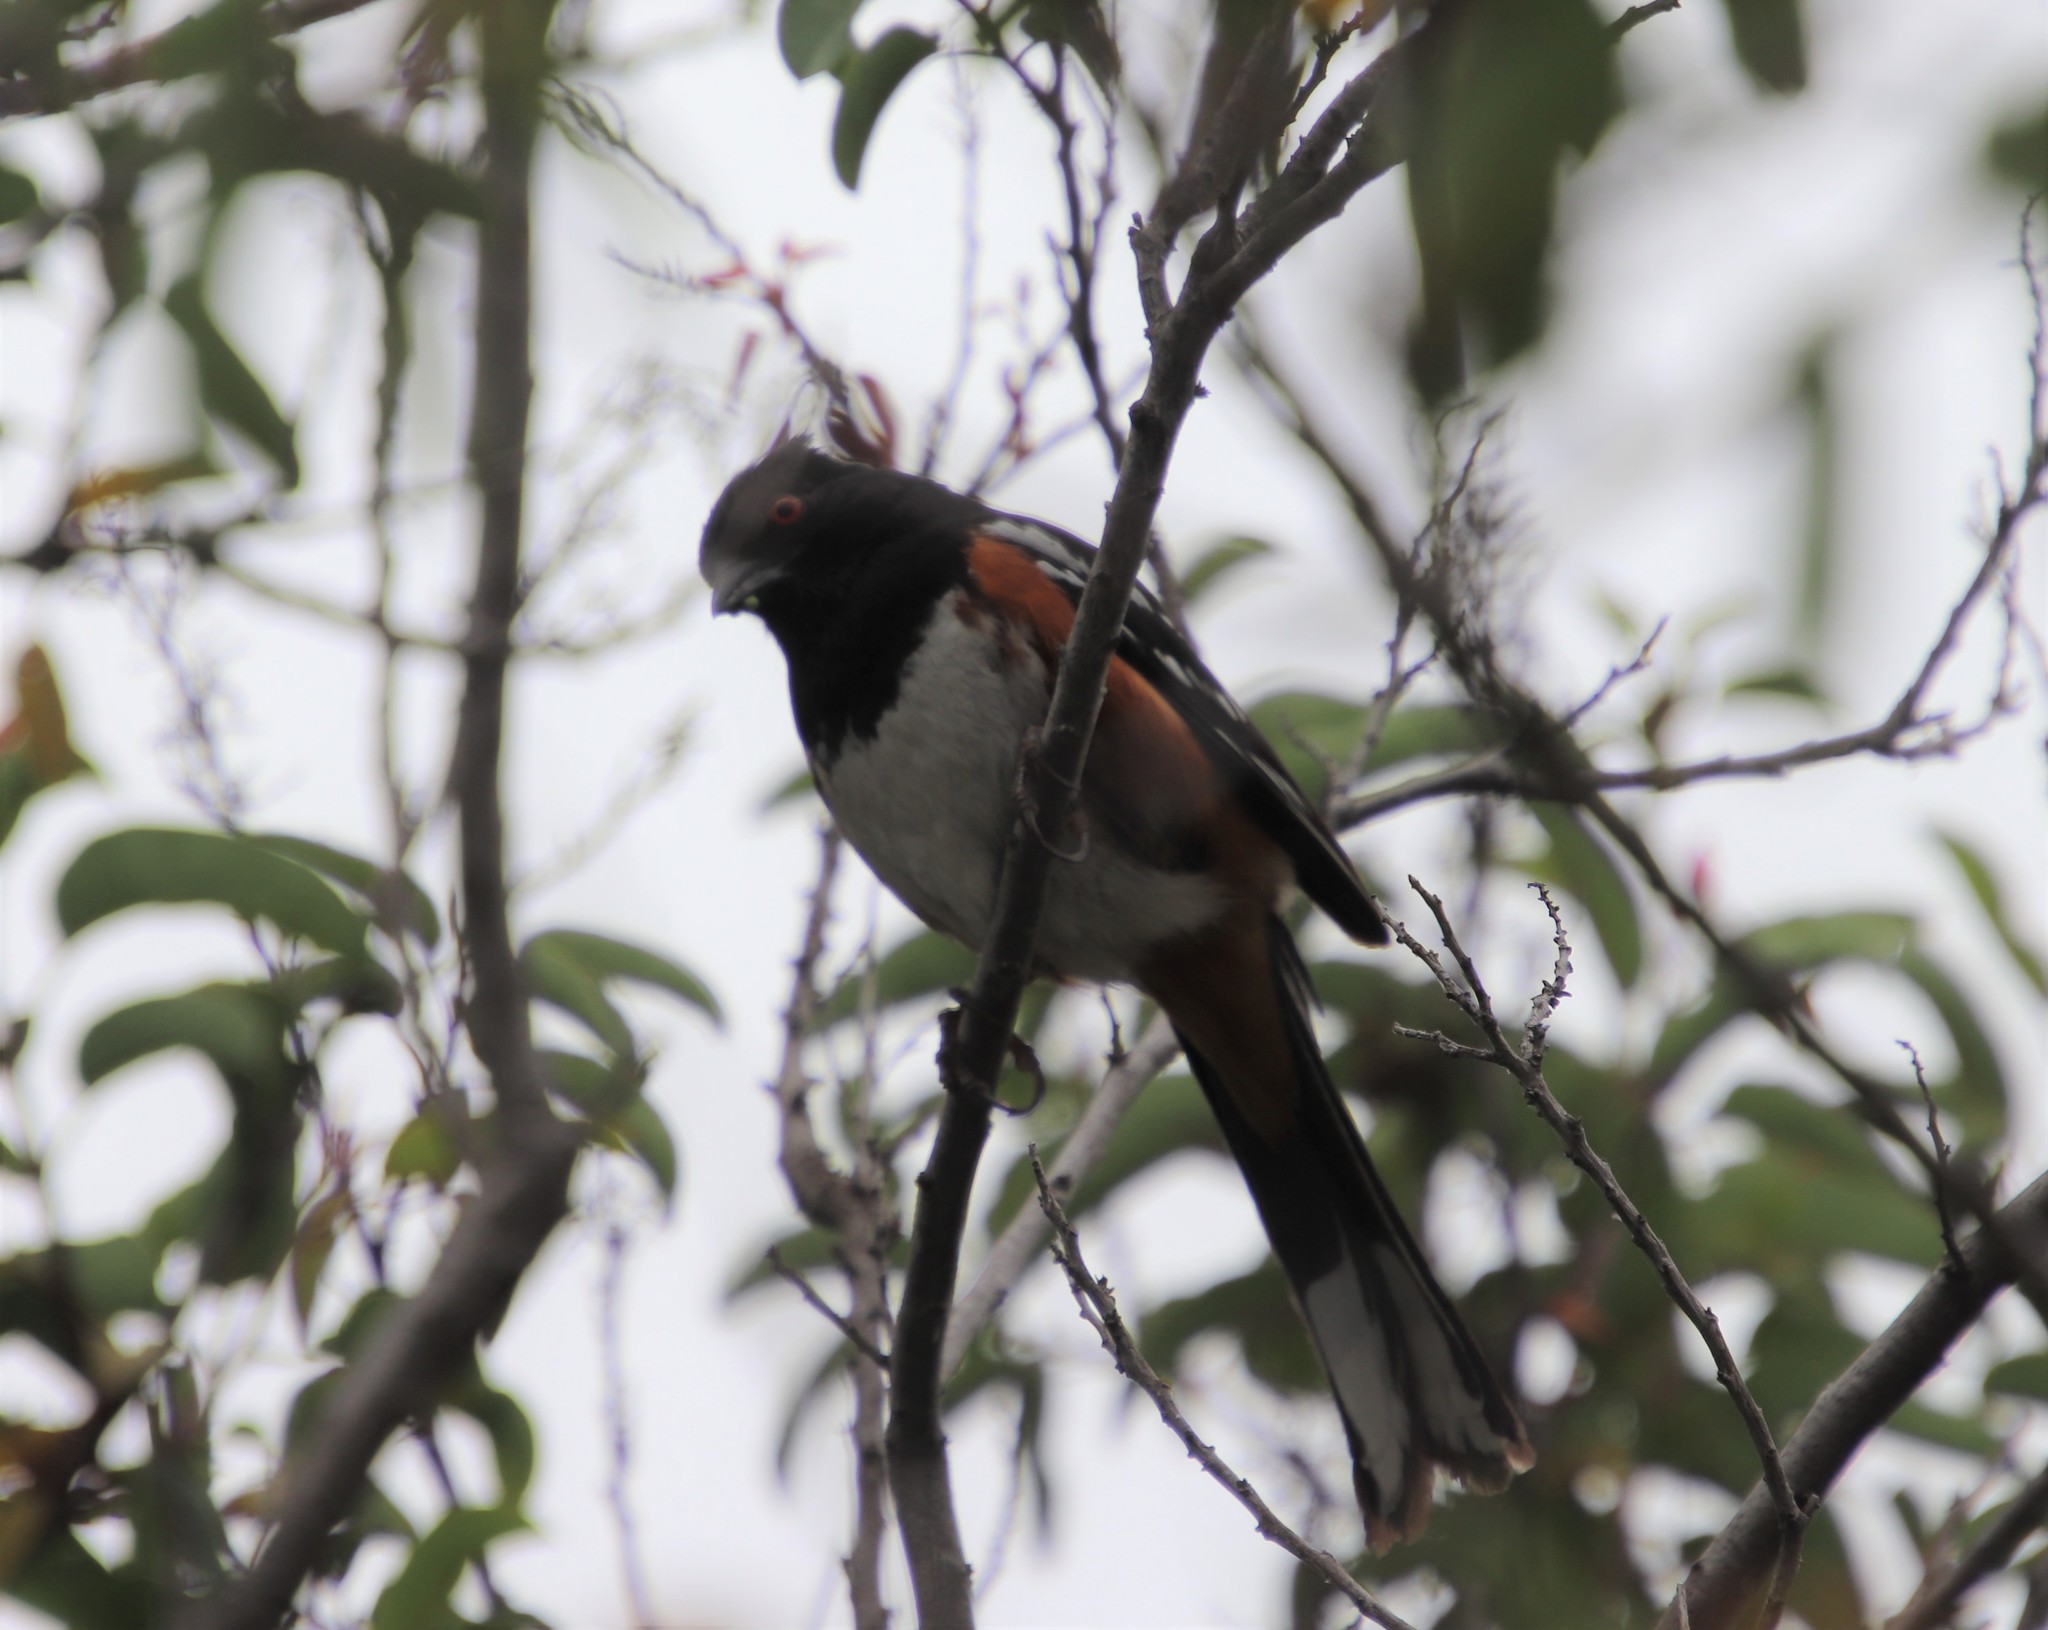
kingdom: Animalia
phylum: Chordata
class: Aves
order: Passeriformes
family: Passerellidae
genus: Pipilo
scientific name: Pipilo maculatus
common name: Spotted towhee
